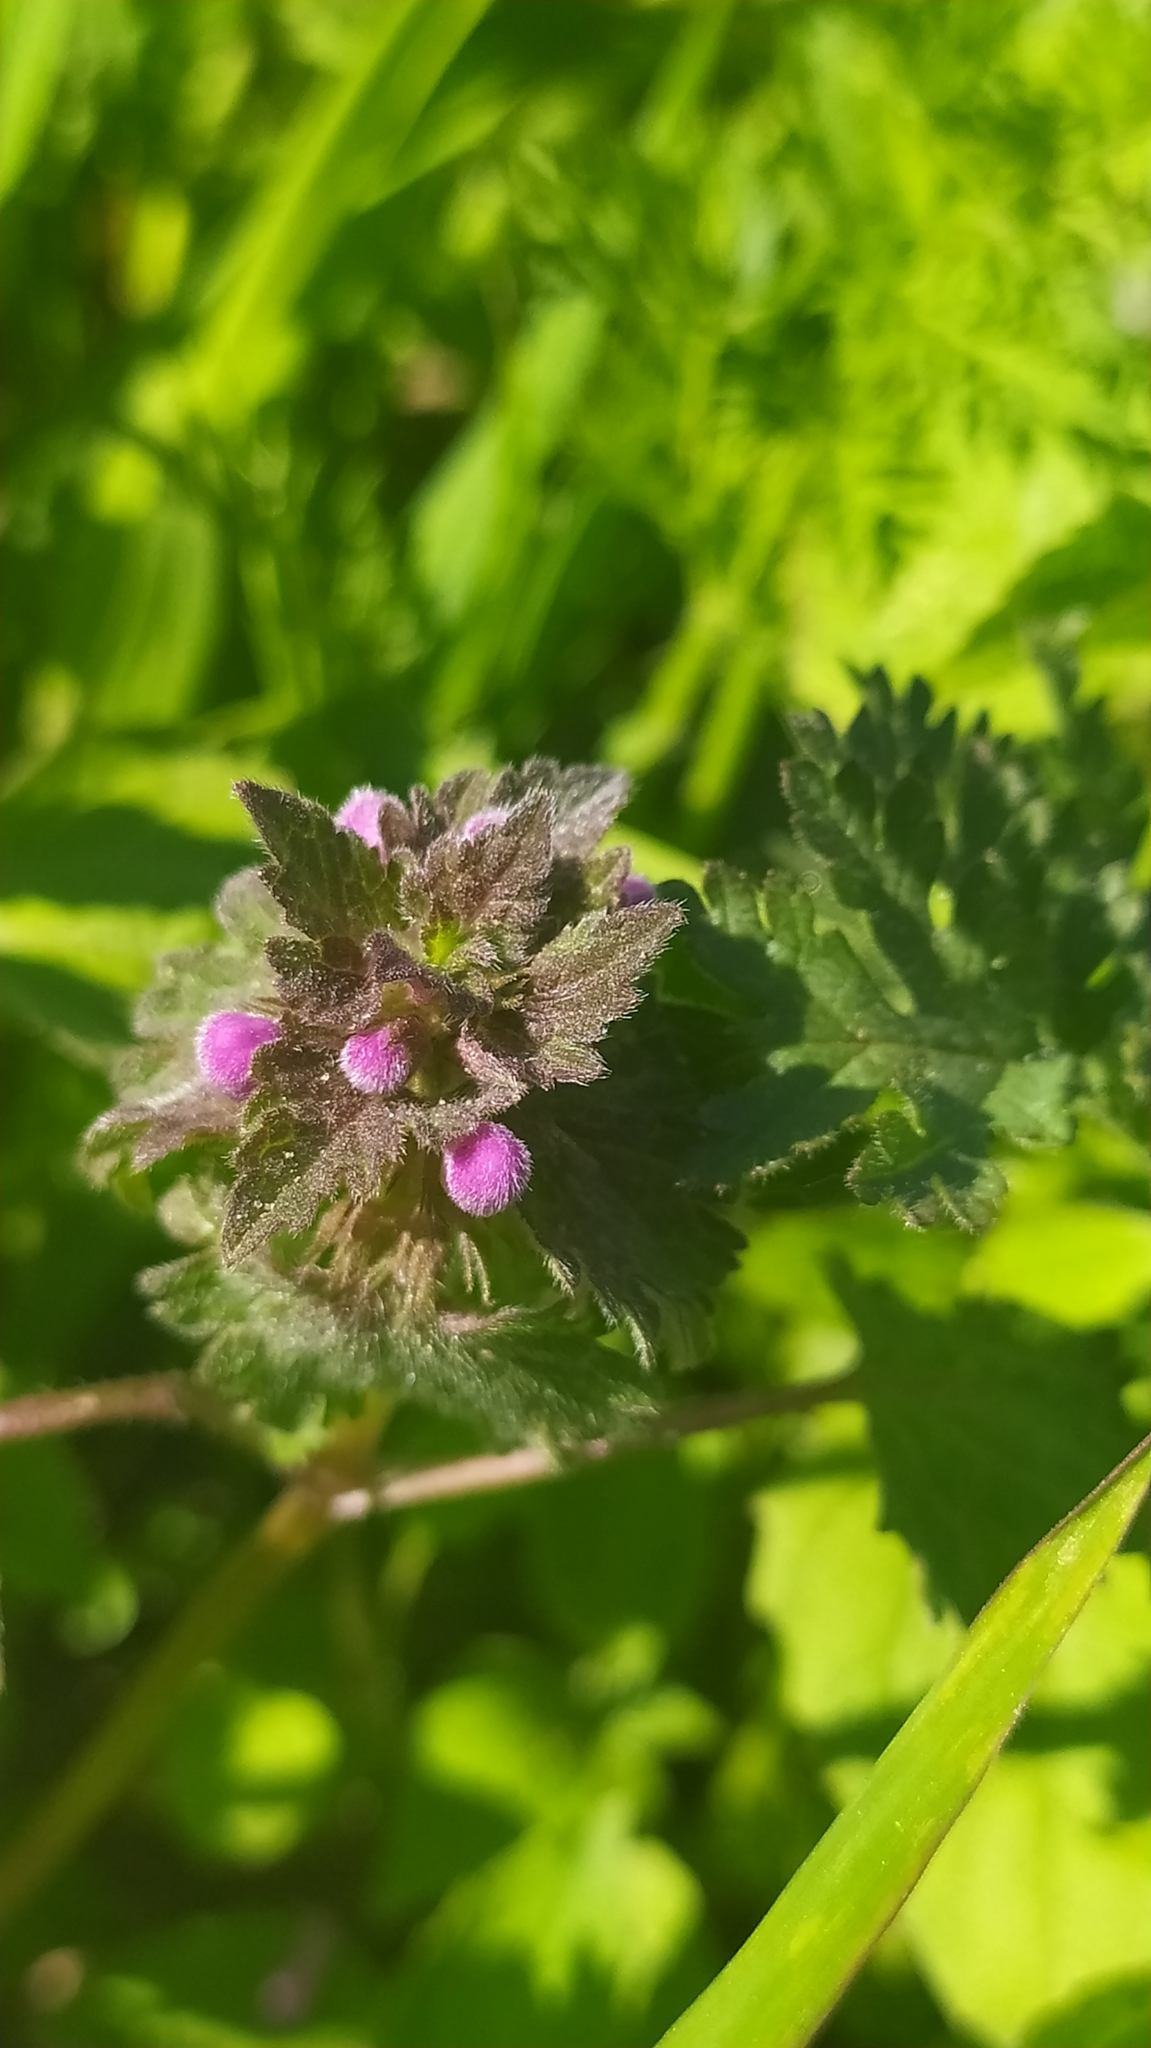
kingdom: Plantae
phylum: Tracheophyta
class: Magnoliopsida
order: Lamiales
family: Lamiaceae
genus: Lamium
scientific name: Lamium purpureum
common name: Red dead-nettle
